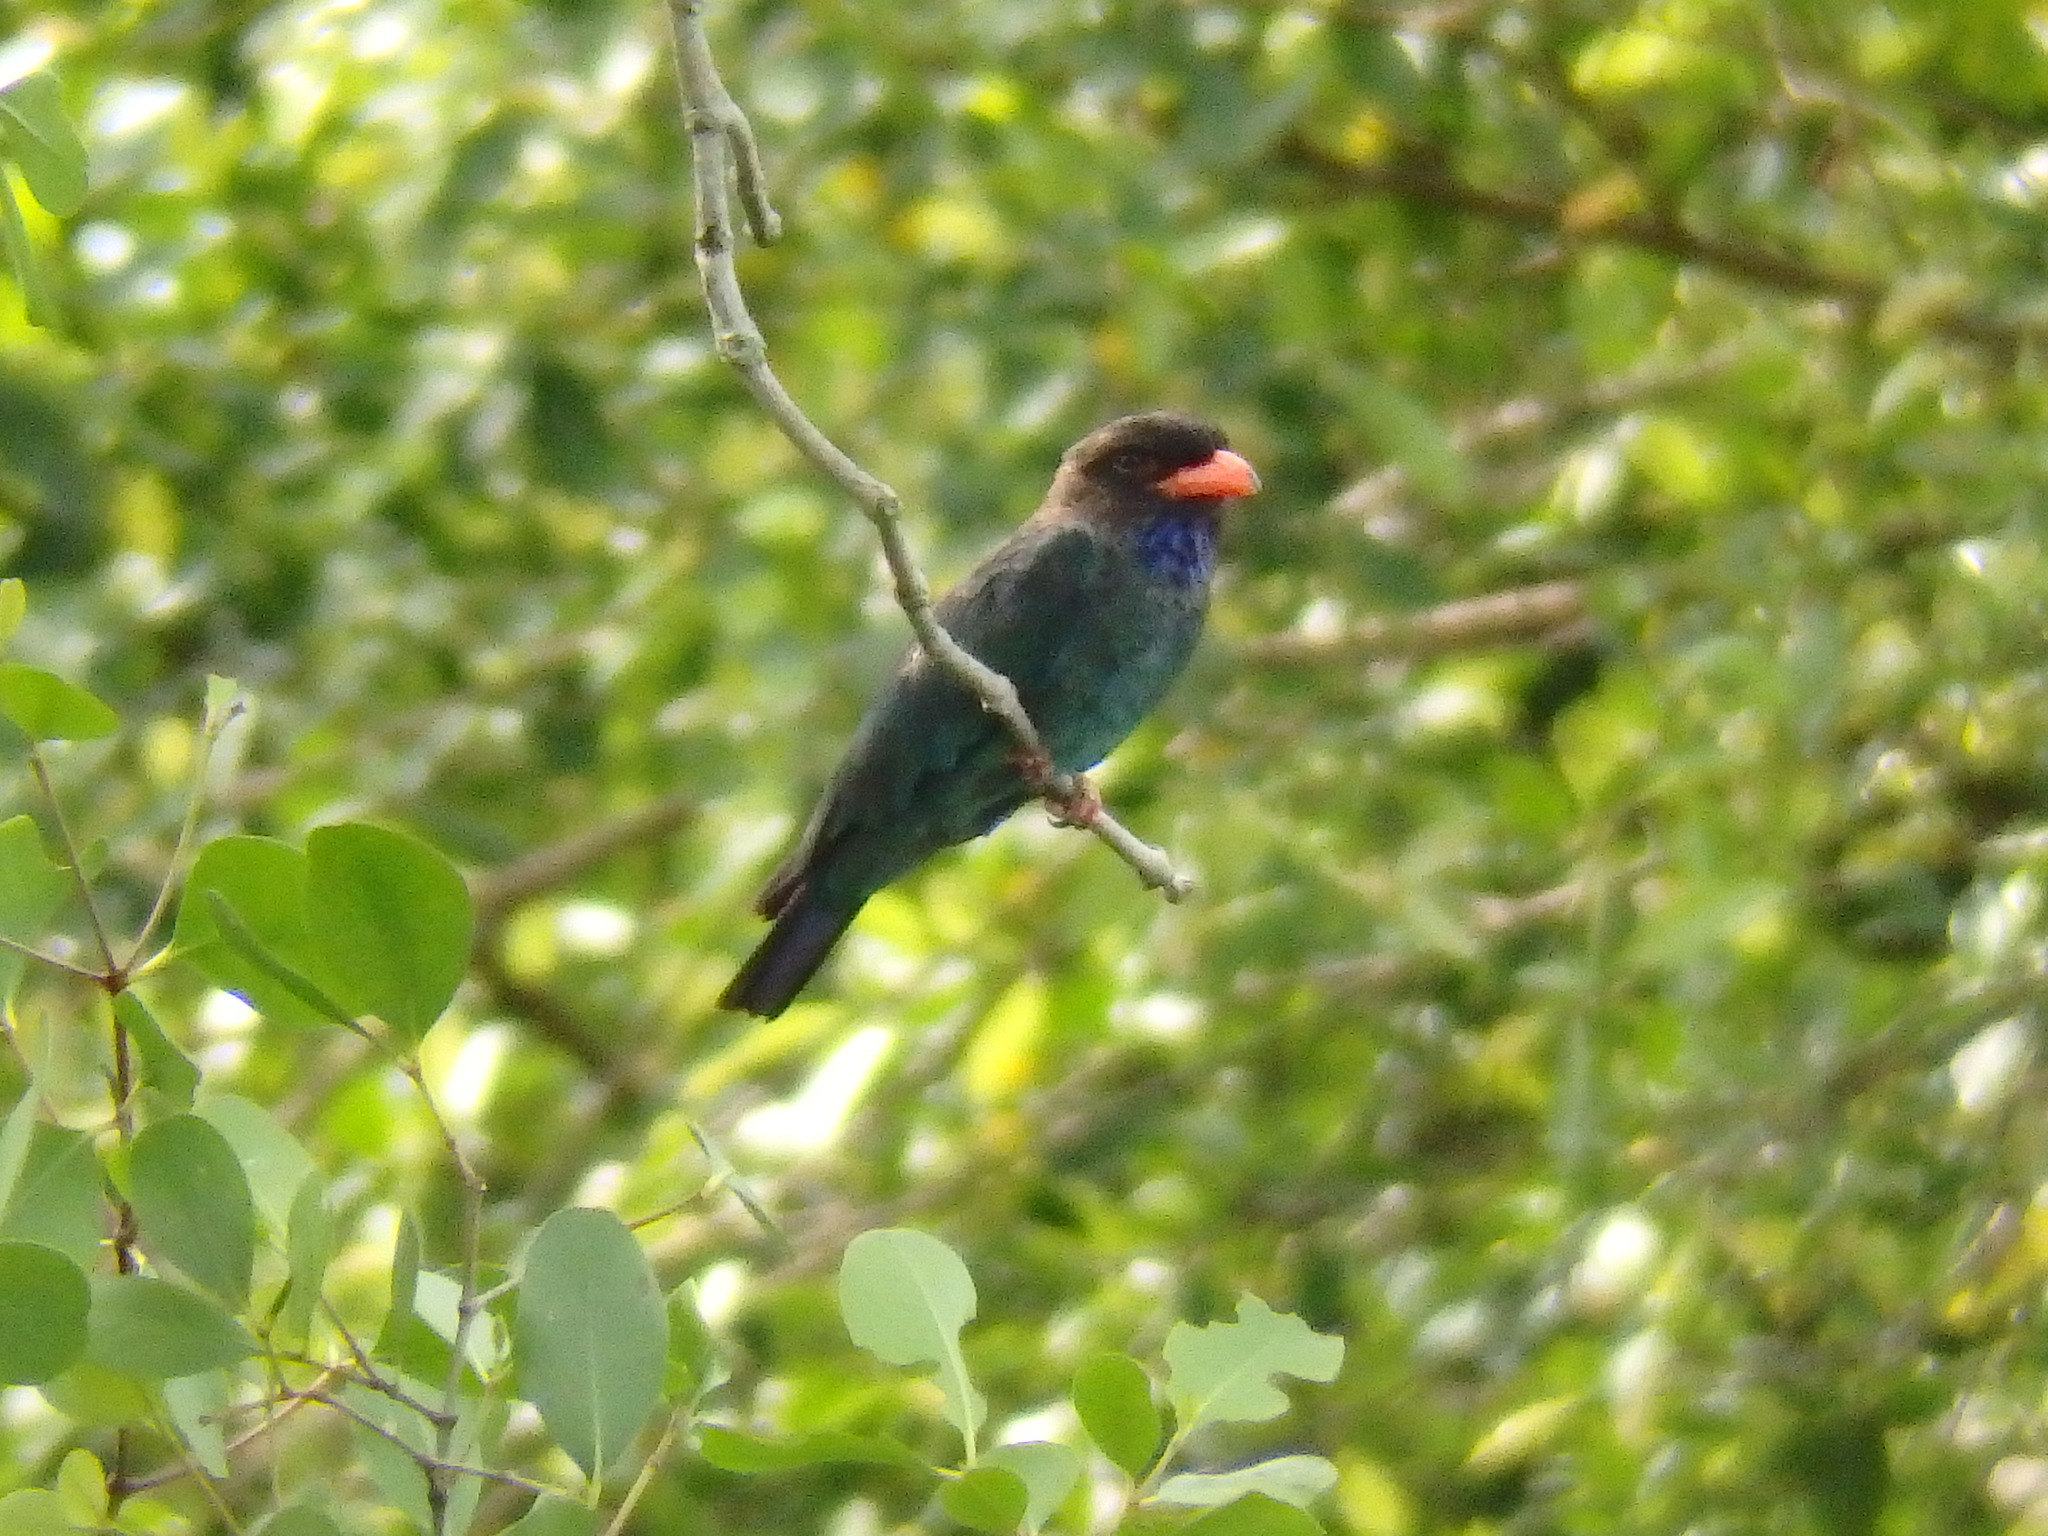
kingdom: Animalia
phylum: Chordata
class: Aves
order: Coraciiformes
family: Coraciidae
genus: Eurystomus
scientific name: Eurystomus orientalis
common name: Oriental dollarbird
